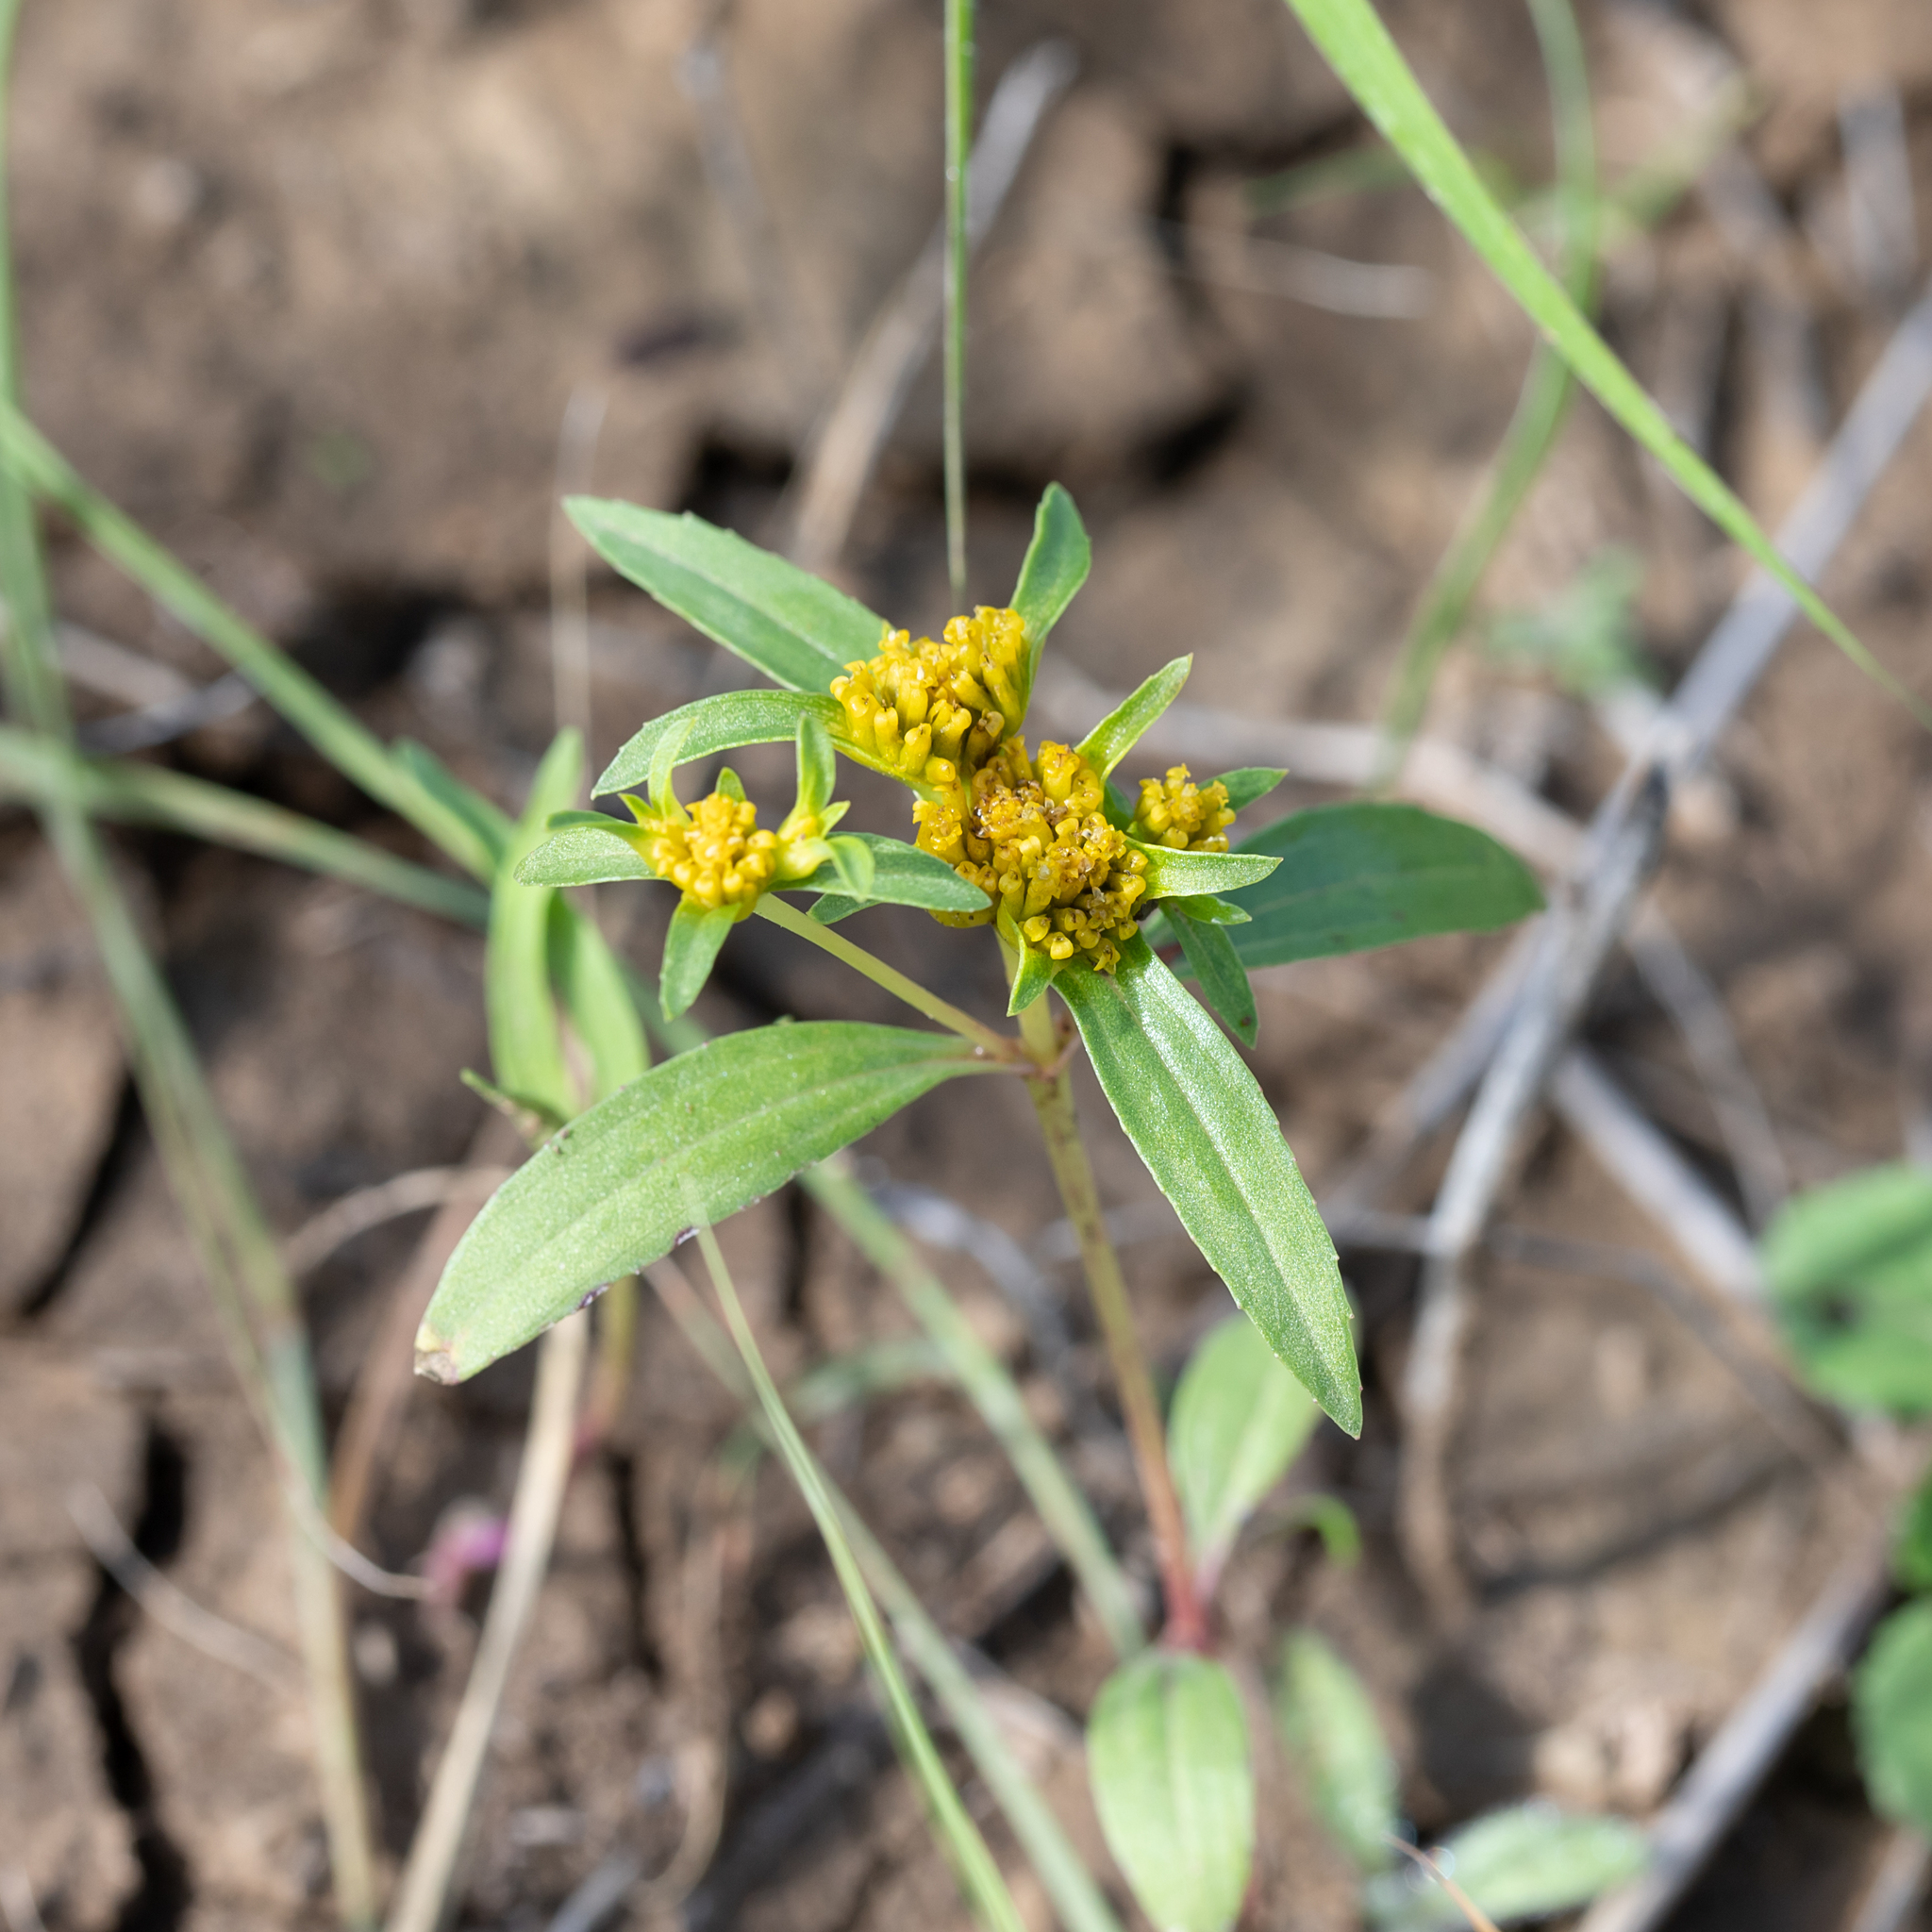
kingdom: Plantae
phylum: Tracheophyta
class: Magnoliopsida
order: Asterales
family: Asteraceae
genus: Flaveria
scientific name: Flaveria trinervia
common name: Clustered yellowtops
